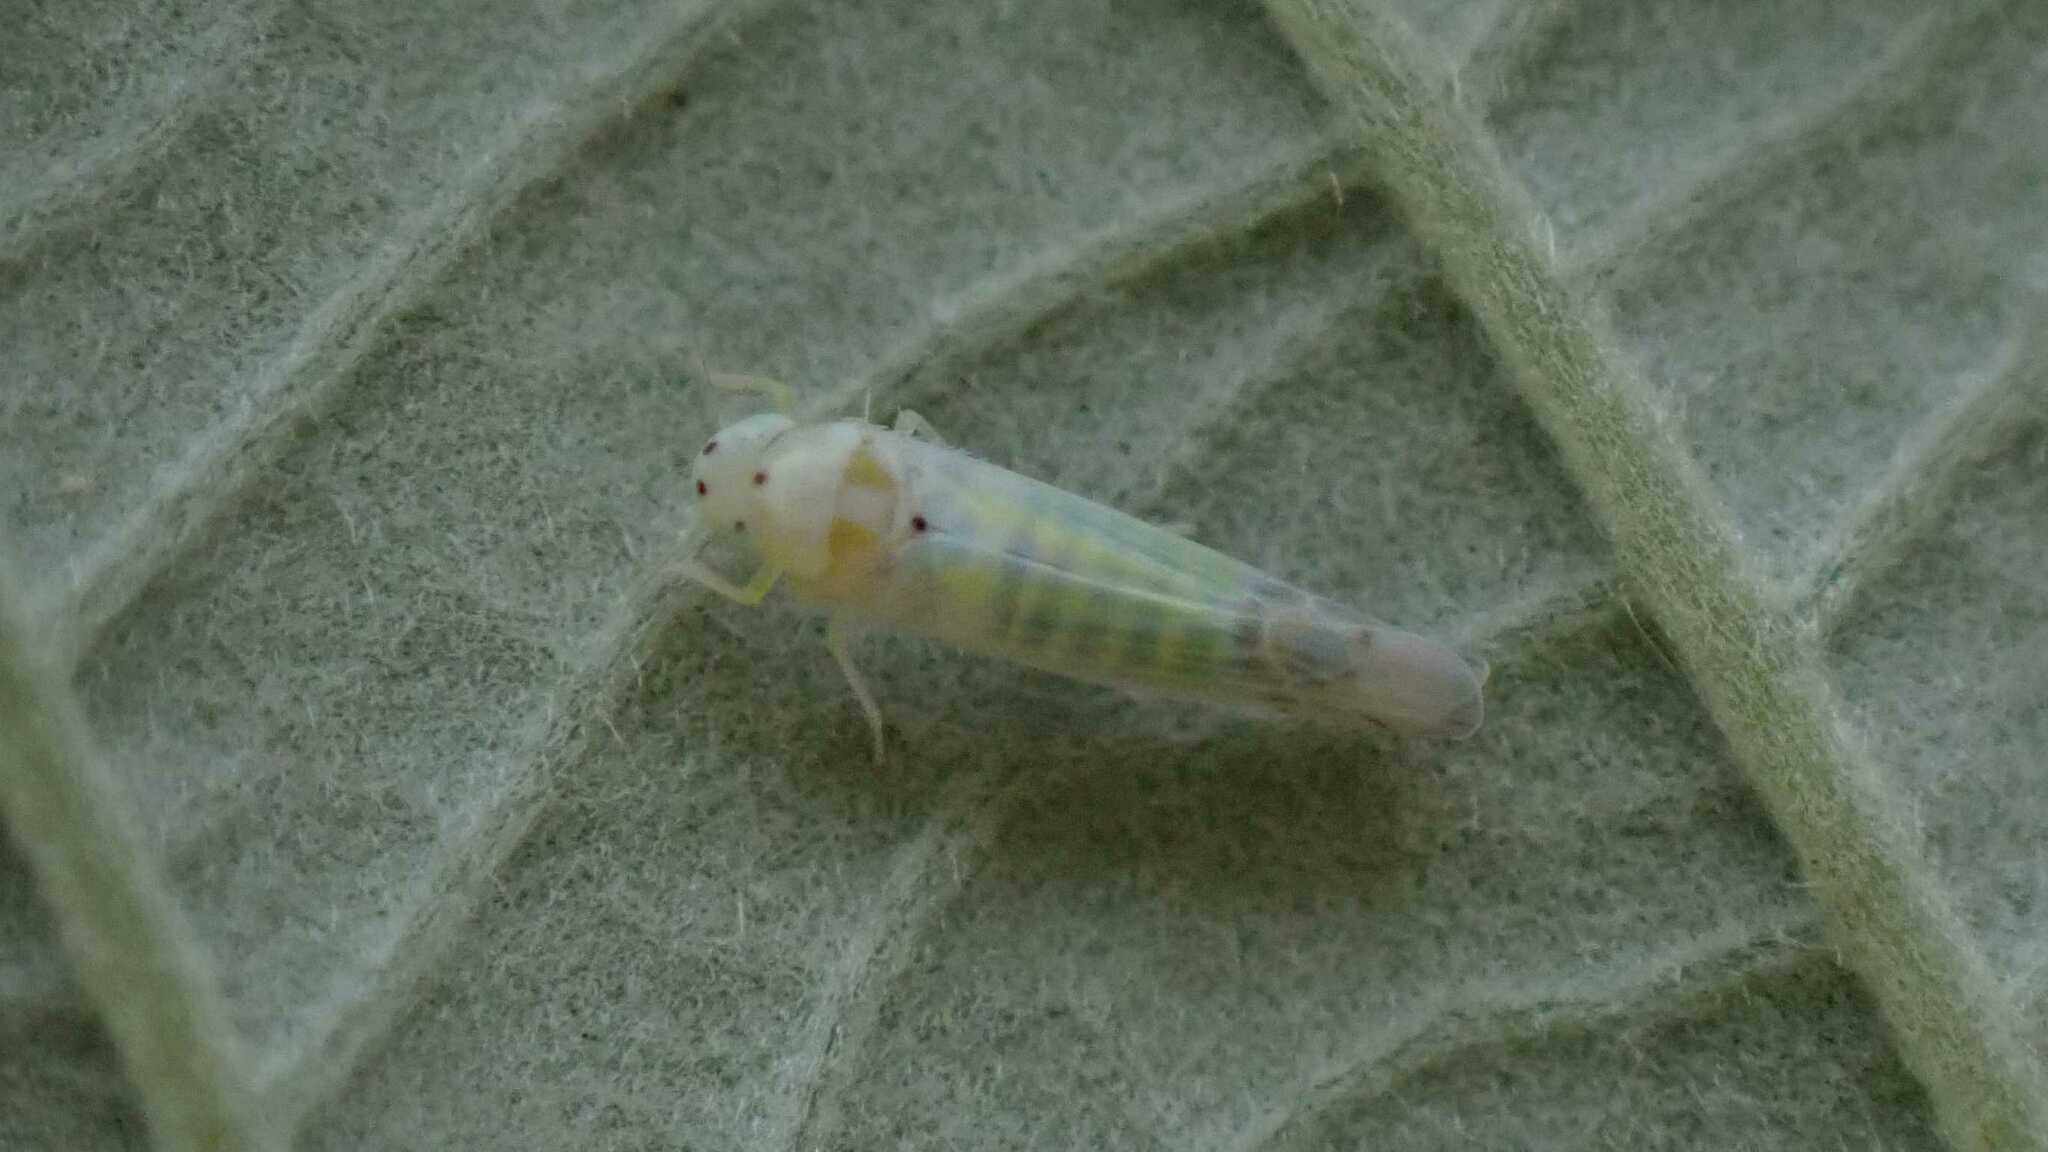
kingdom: Animalia
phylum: Arthropoda
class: Insecta
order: Hemiptera
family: Cicadellidae
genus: Ribautiana
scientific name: Ribautiana debilis
